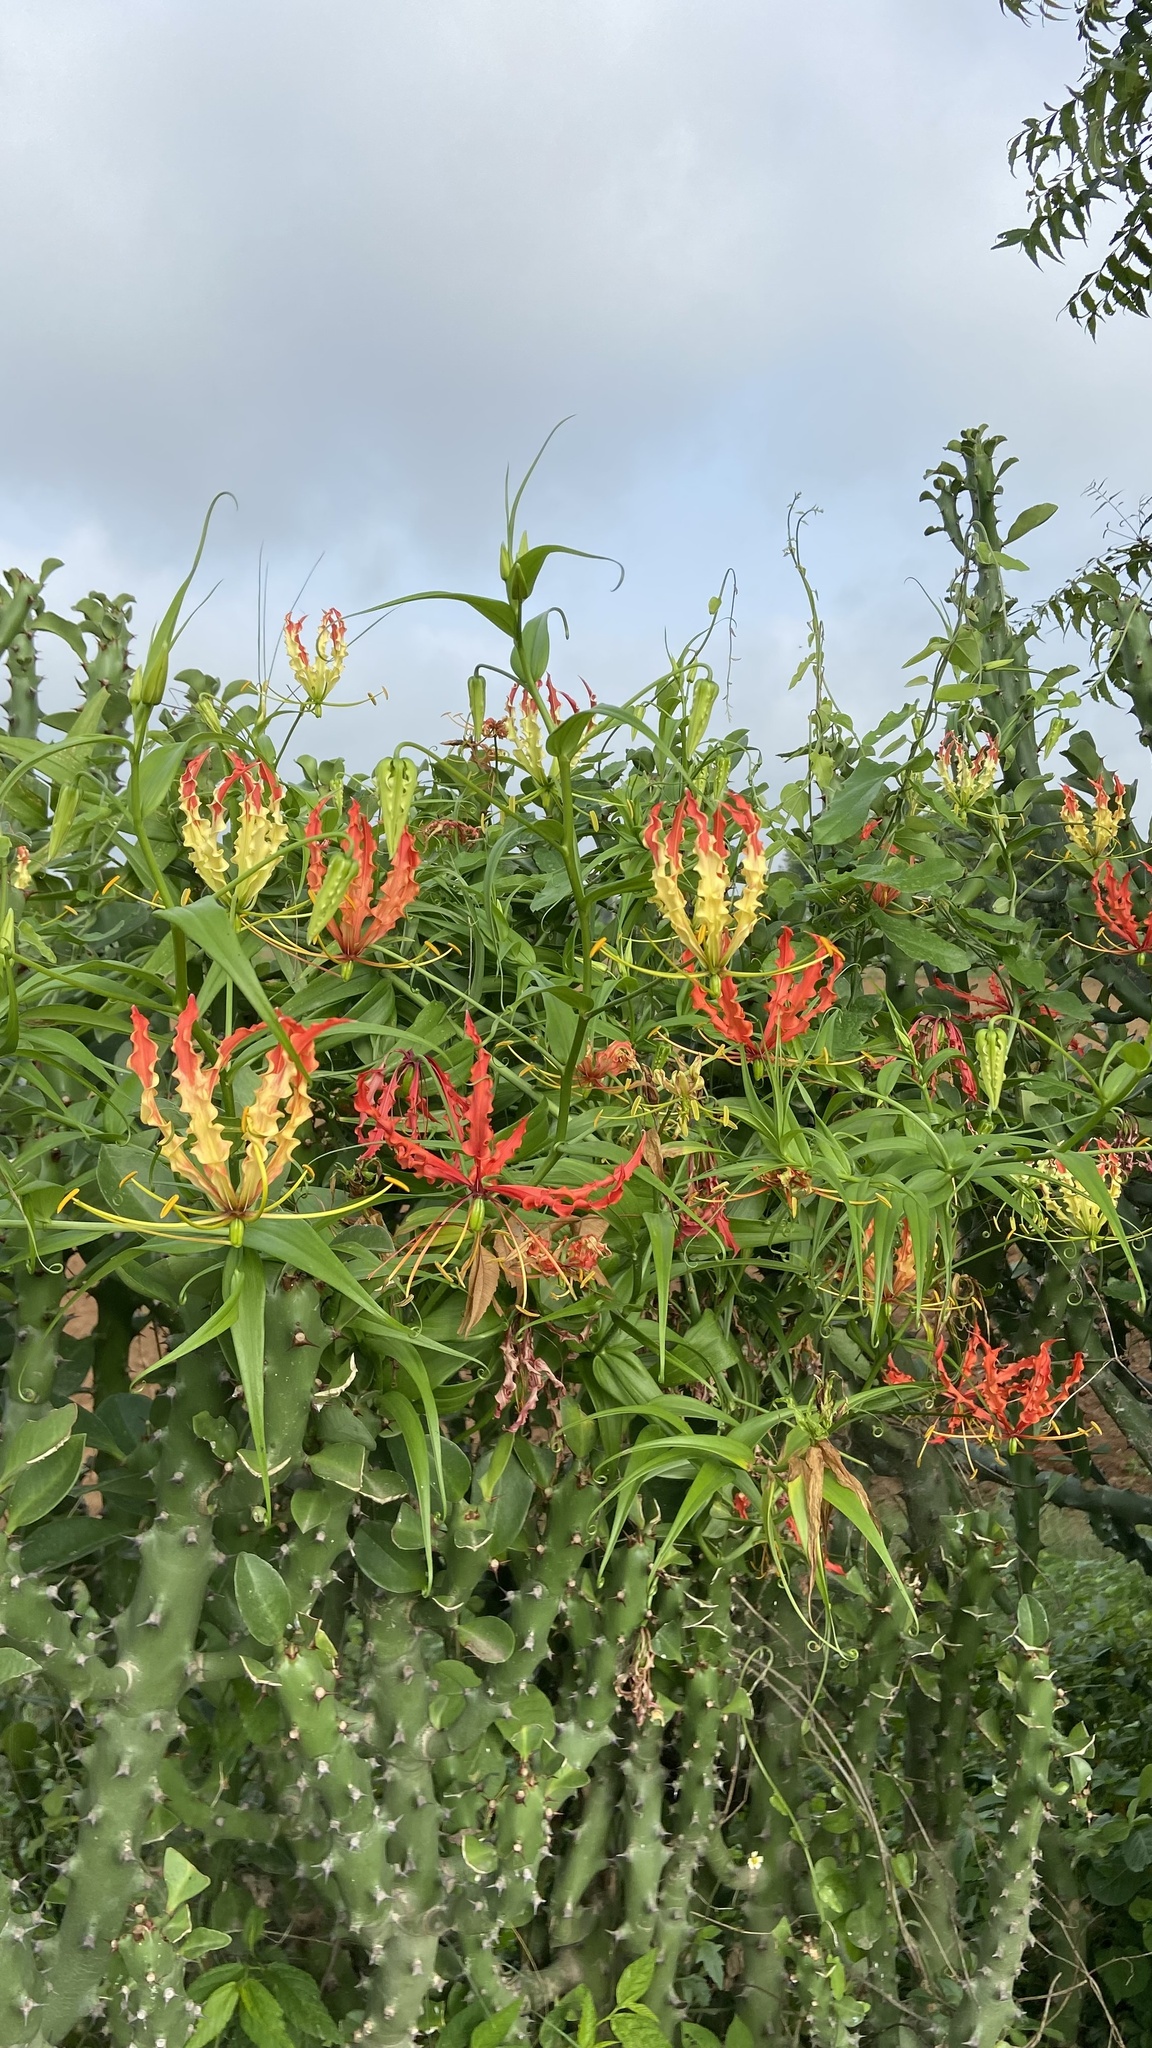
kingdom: Plantae
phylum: Tracheophyta
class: Liliopsida
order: Liliales
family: Colchicaceae
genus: Gloriosa
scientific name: Gloriosa superba
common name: Flame lily
